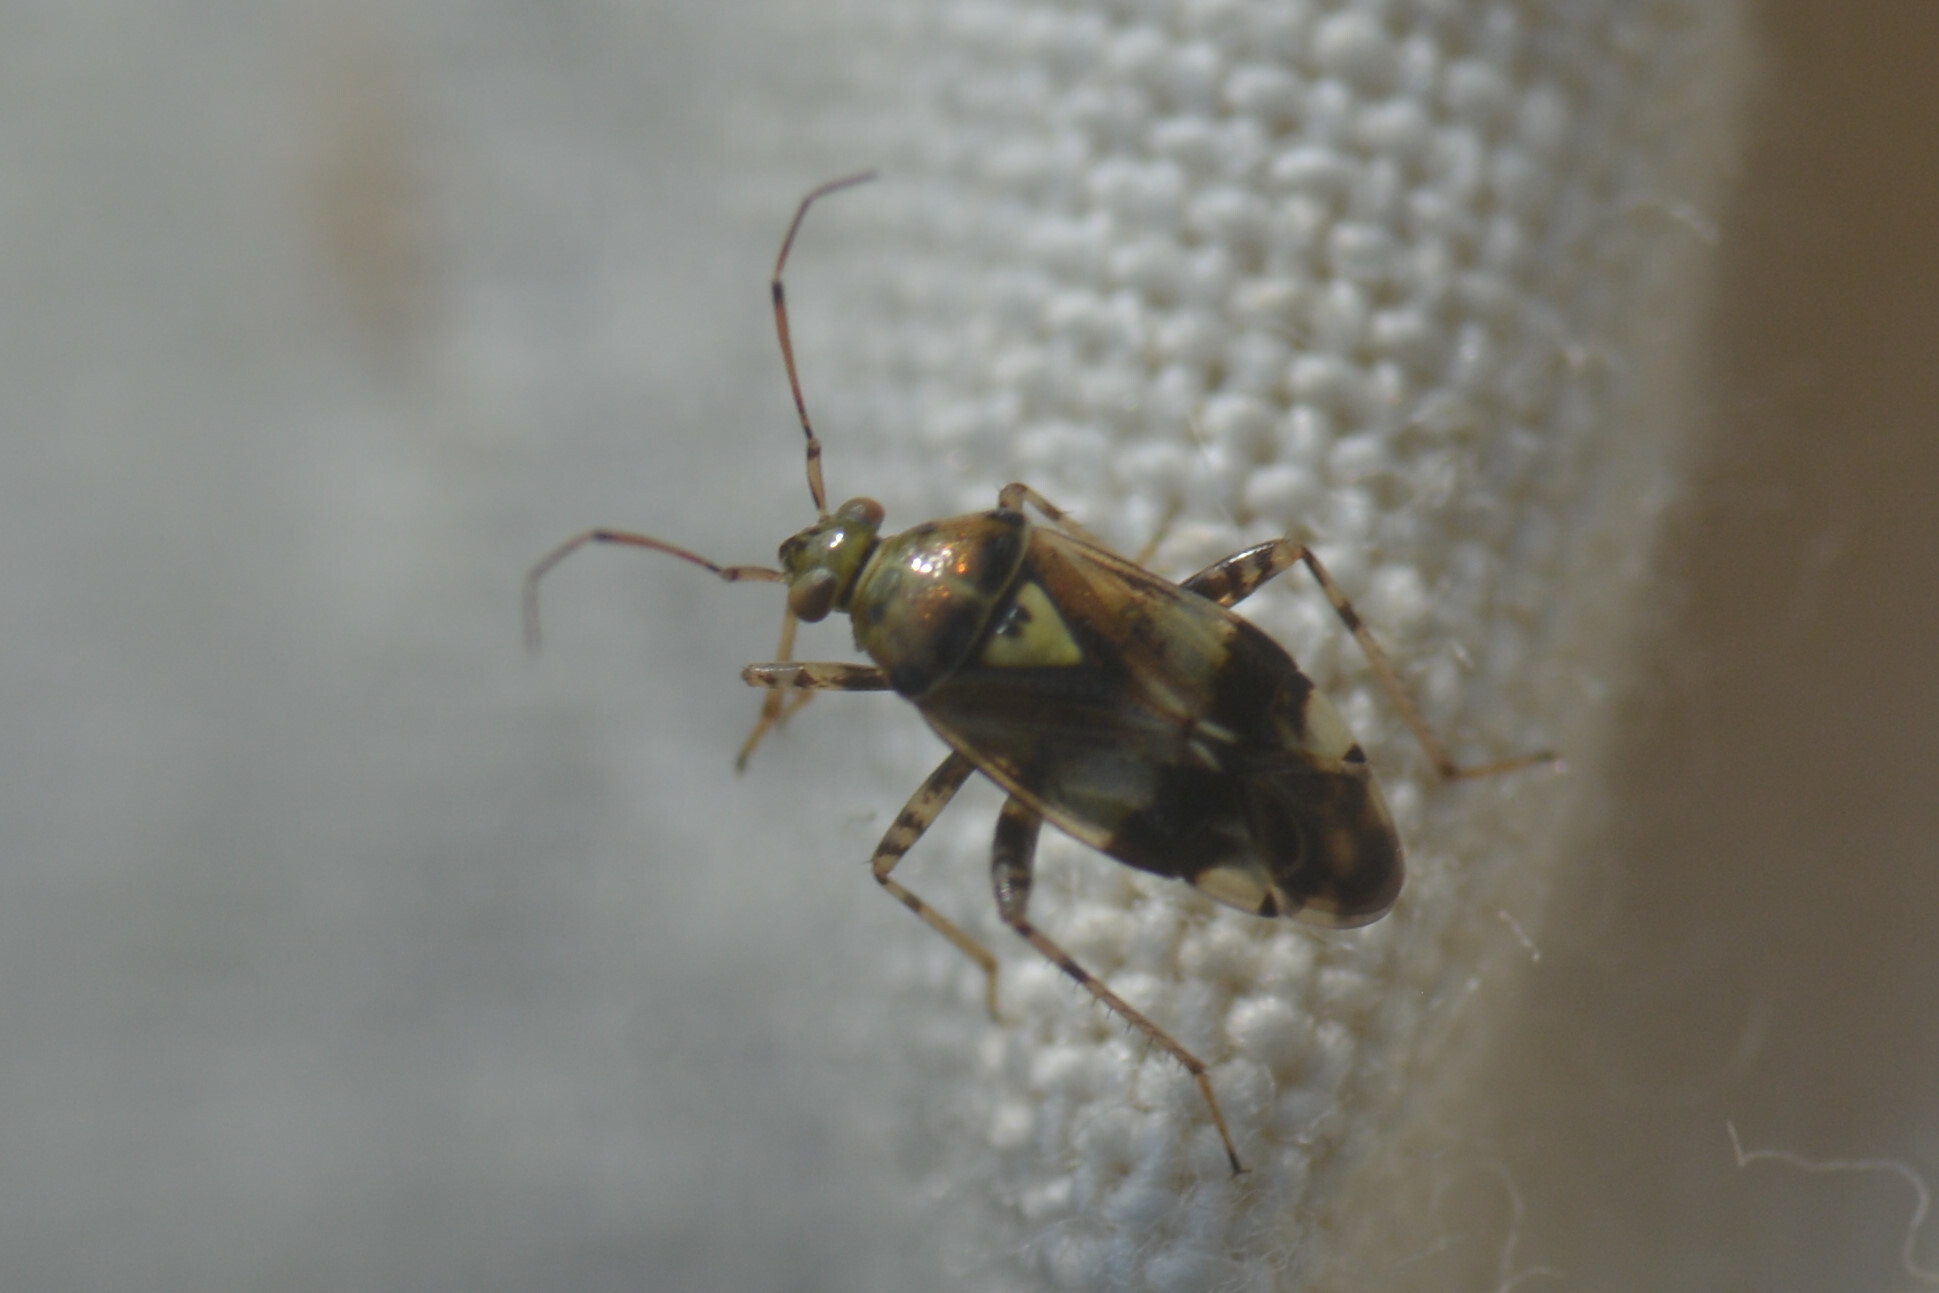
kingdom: Animalia
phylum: Arthropoda
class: Insecta
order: Hemiptera
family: Miridae
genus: Liocoris
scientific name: Liocoris tripustulatus
